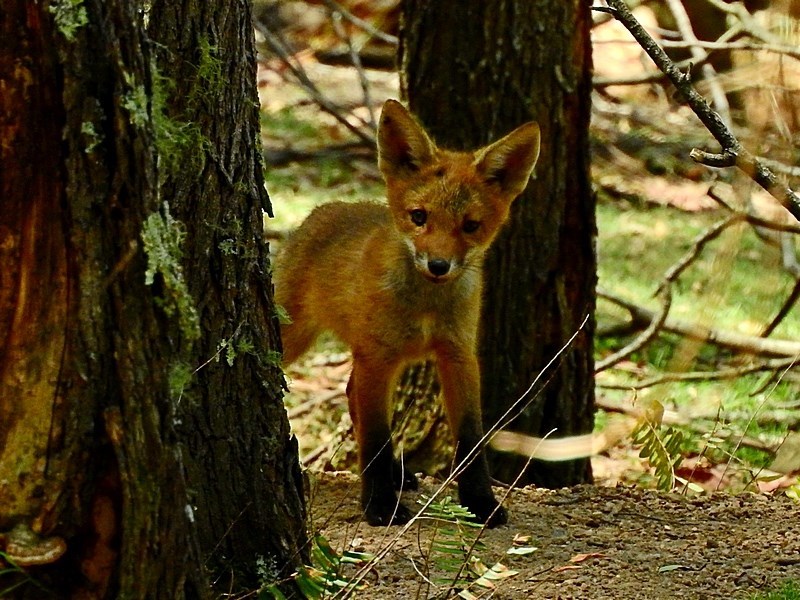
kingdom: Animalia
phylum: Chordata
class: Mammalia
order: Carnivora
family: Canidae
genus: Vulpes
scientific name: Vulpes vulpes
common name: Red fox
